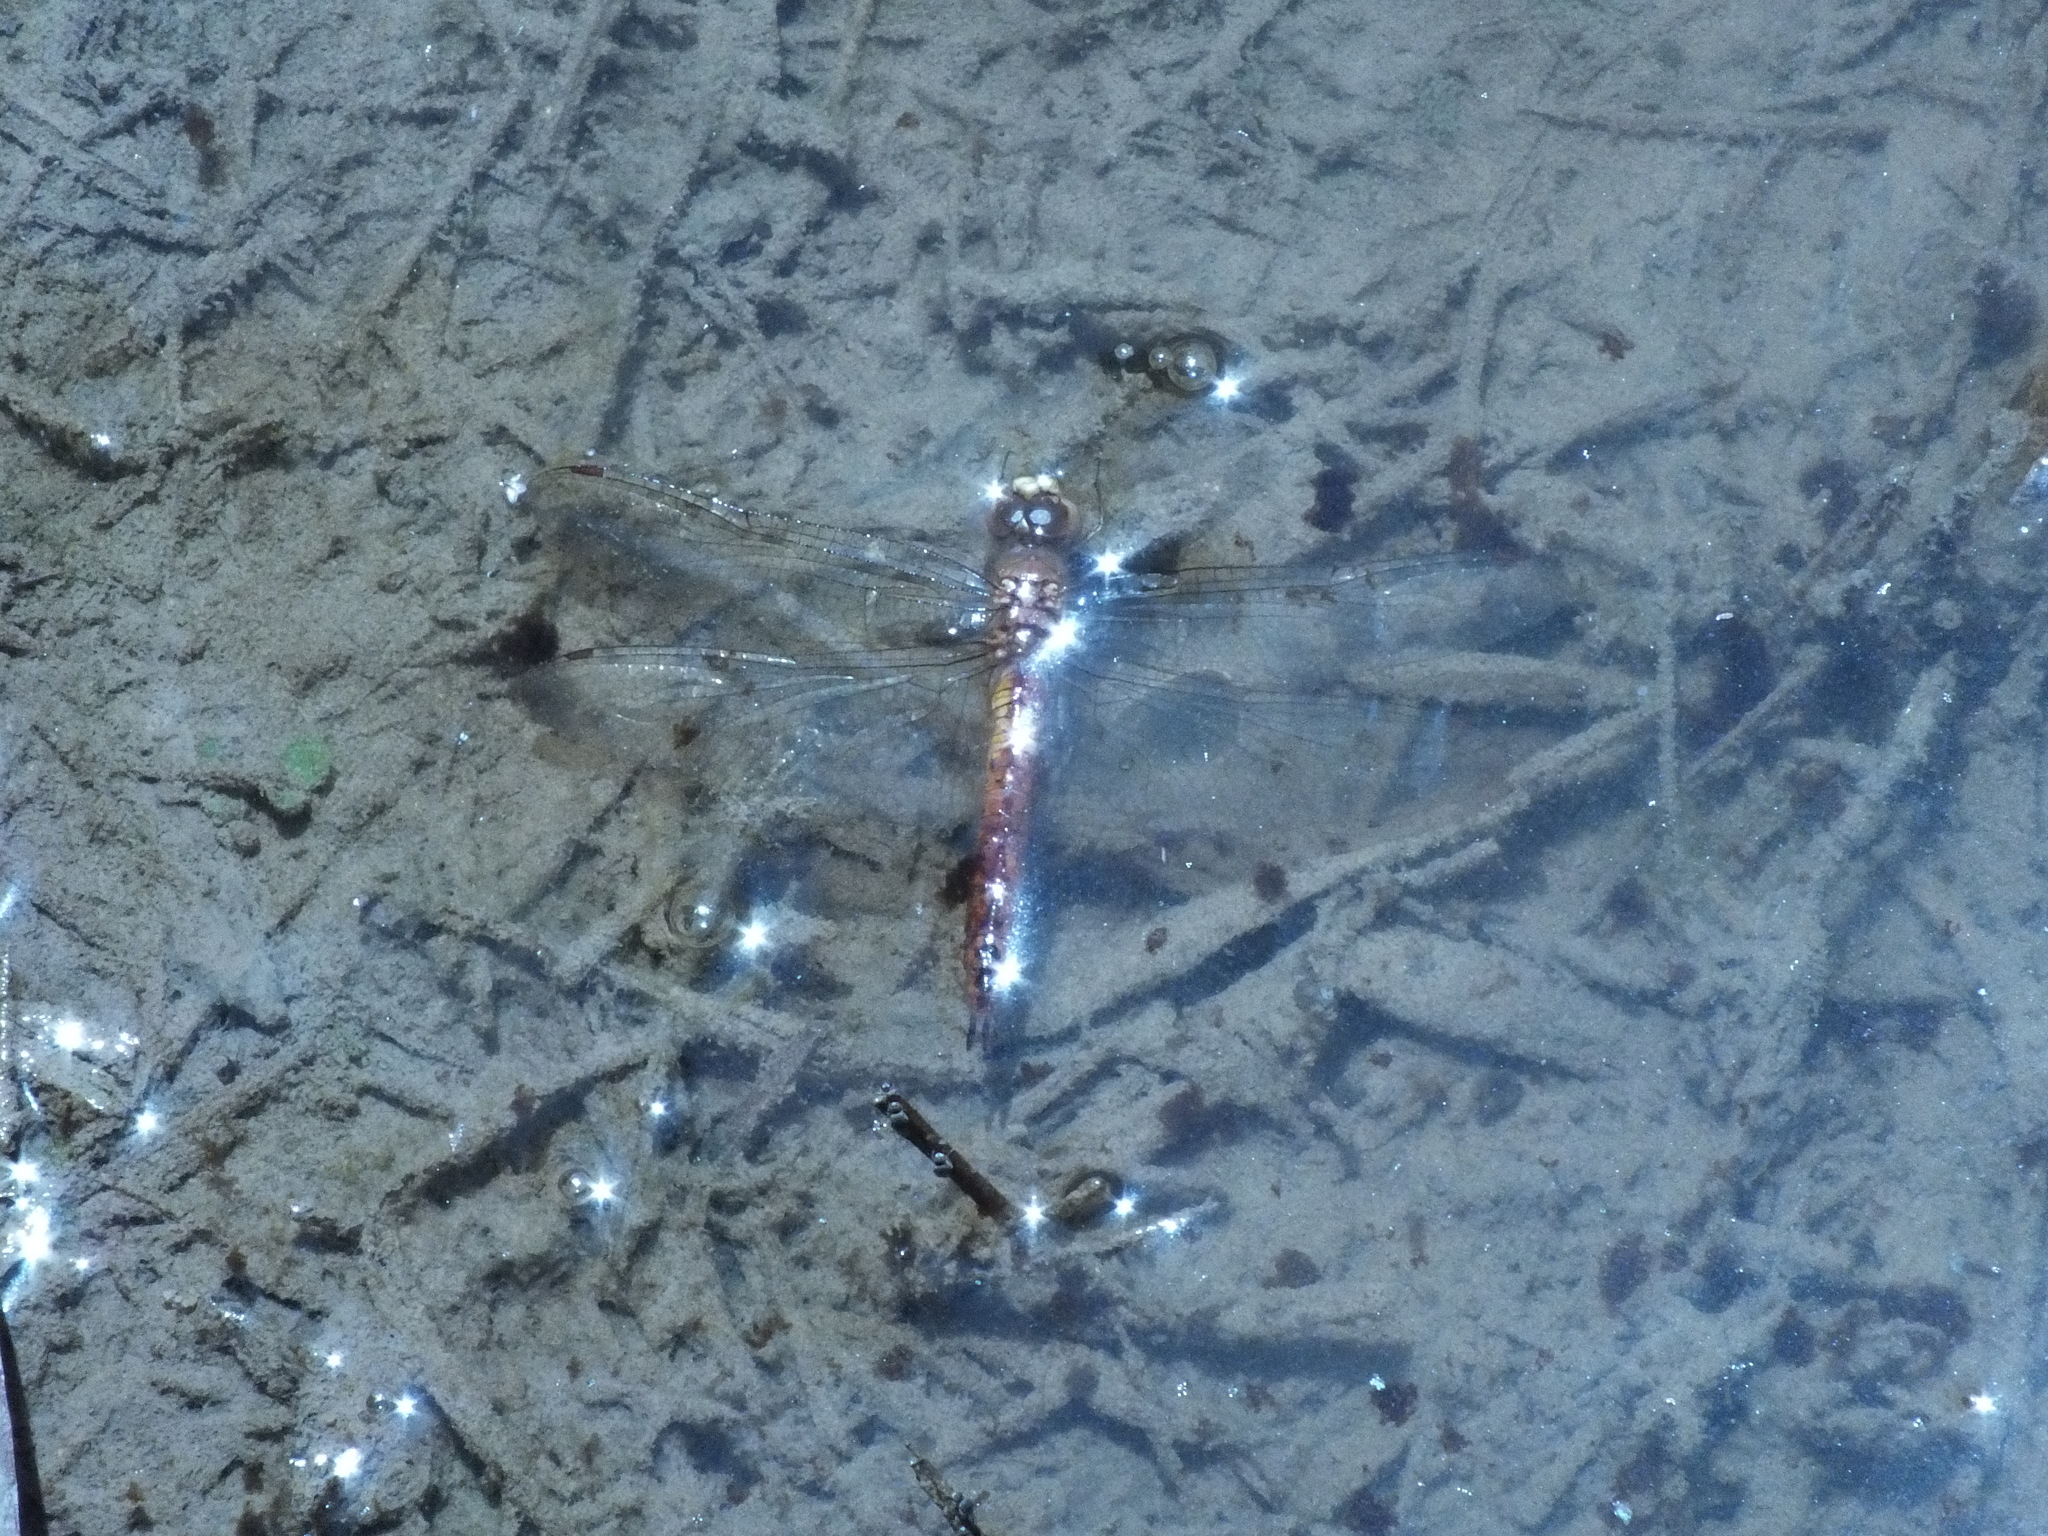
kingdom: Animalia
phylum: Arthropoda
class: Insecta
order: Odonata
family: Libellulidae
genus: Pantala
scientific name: Pantala flavescens
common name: Wandering glider
